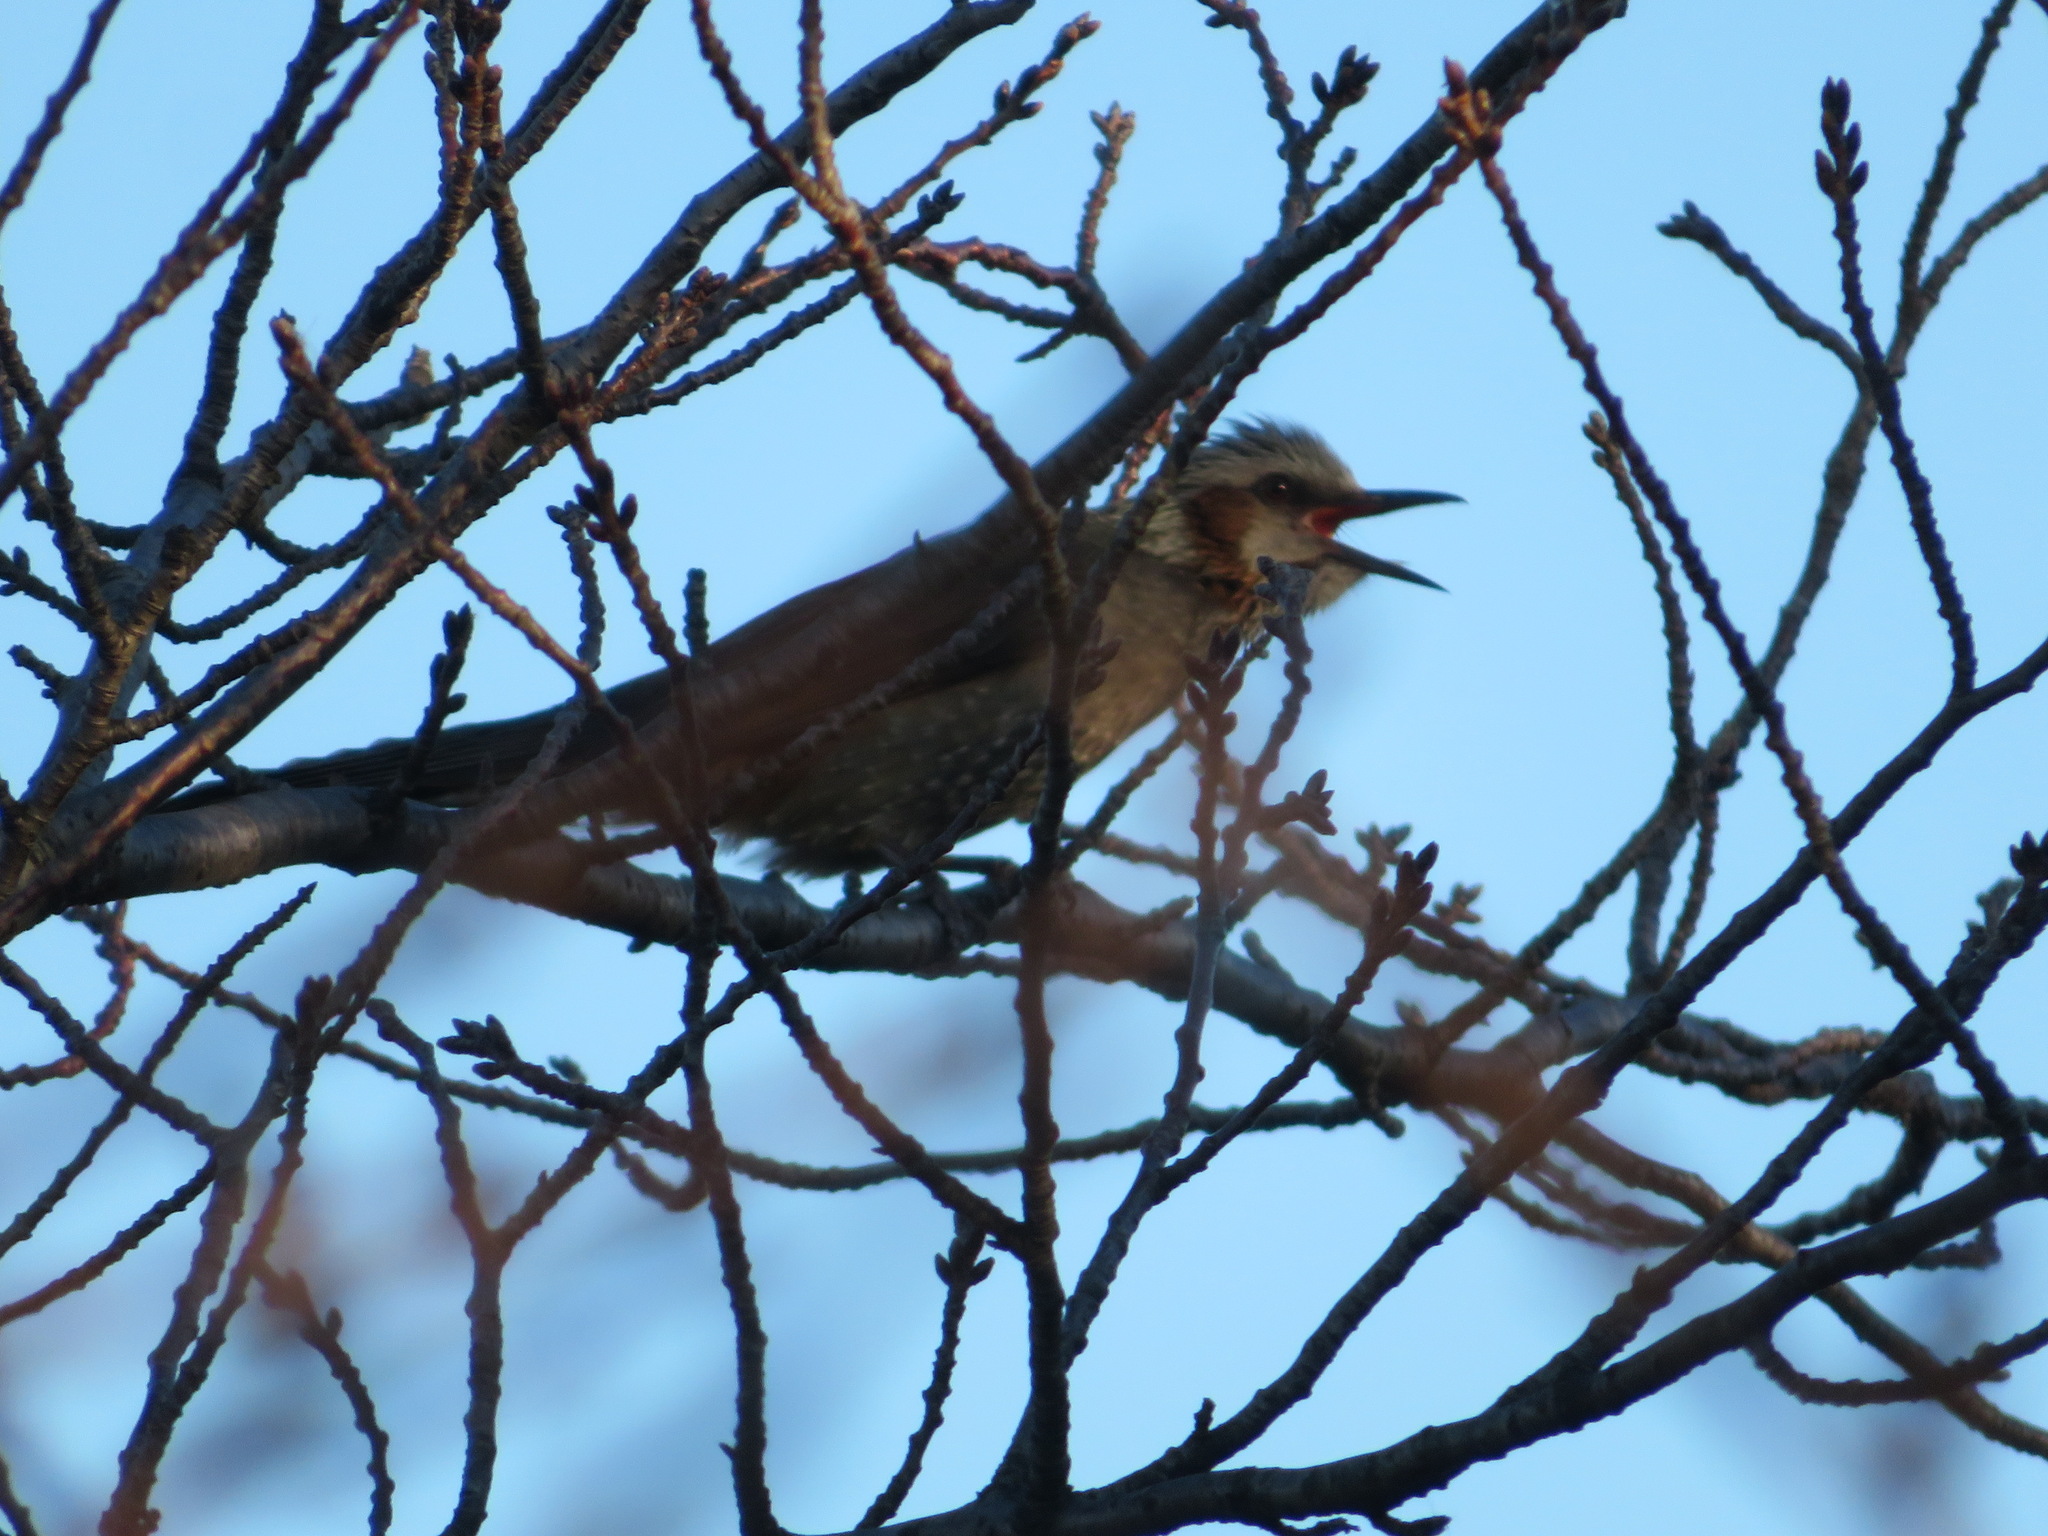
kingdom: Animalia
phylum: Chordata
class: Aves
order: Passeriformes
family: Pycnonotidae
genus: Hypsipetes
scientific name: Hypsipetes amaurotis
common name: Brown-eared bulbul
